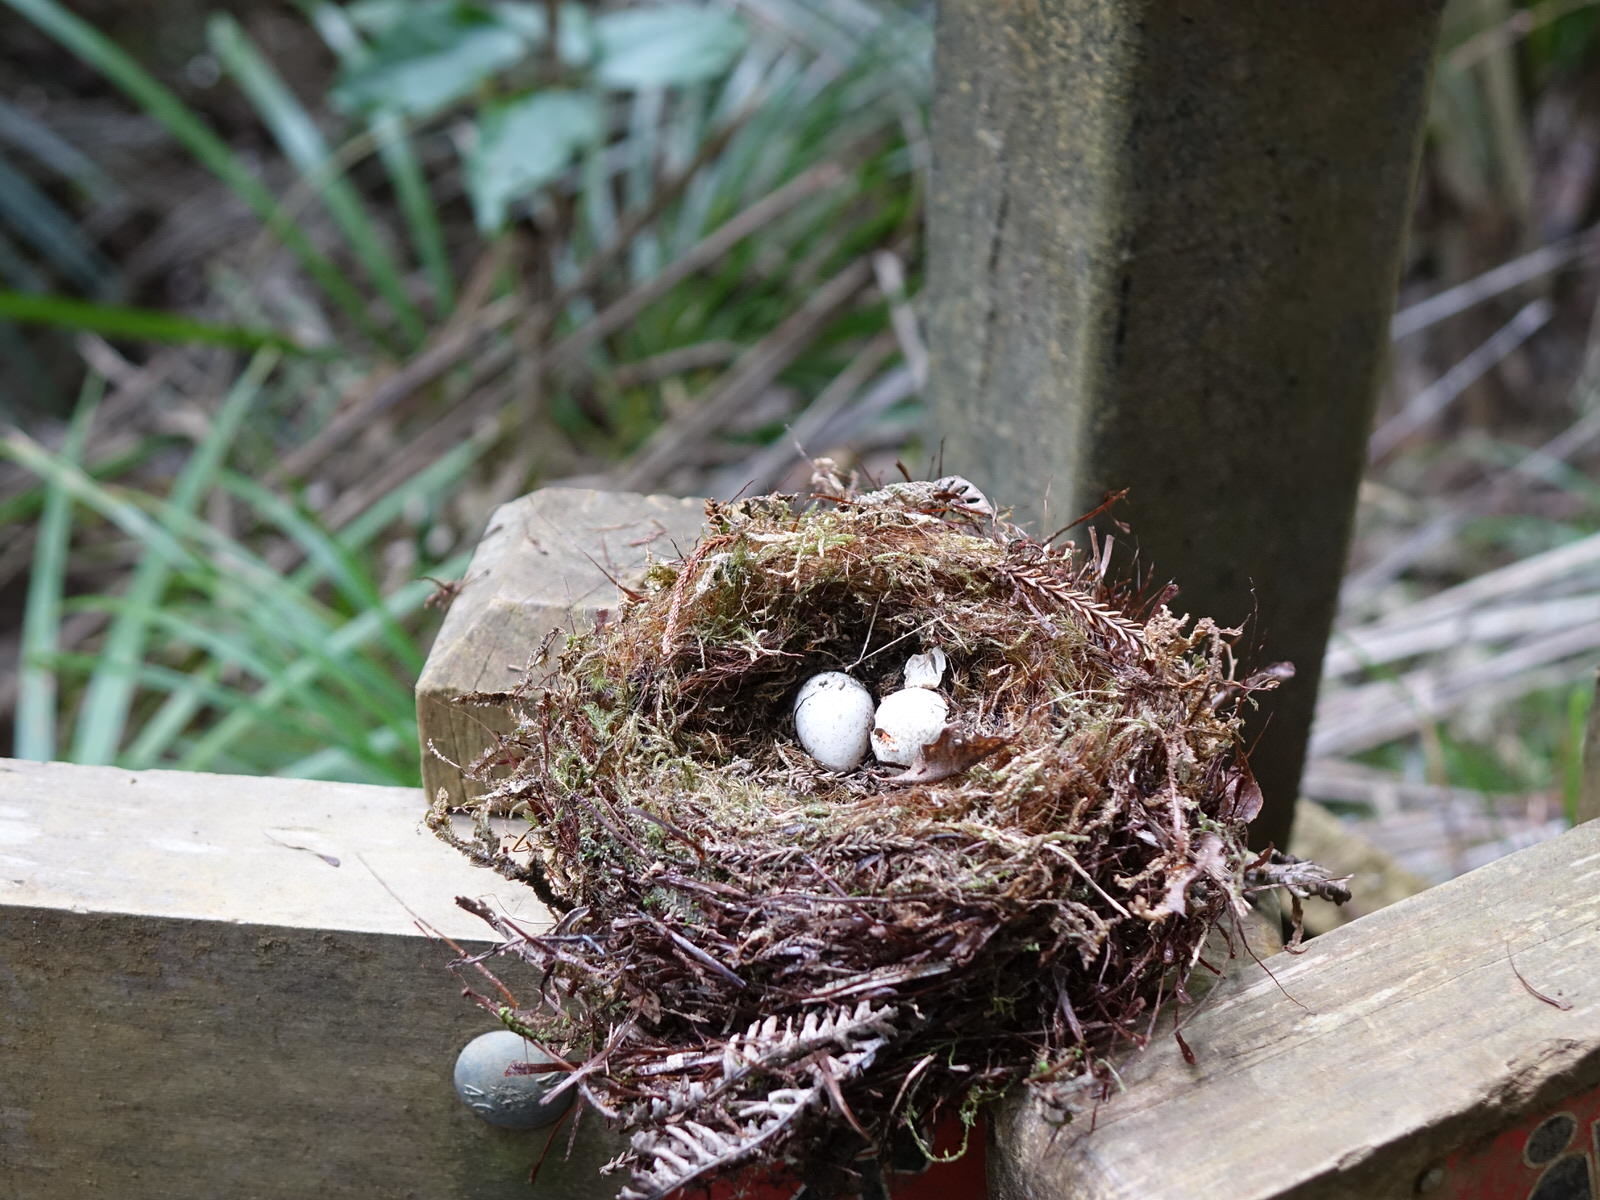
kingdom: Animalia
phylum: Chordata
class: Aves
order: Passeriformes
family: Rhipiduridae
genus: Rhipidura
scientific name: Rhipidura fuliginosa
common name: New zealand fantail
